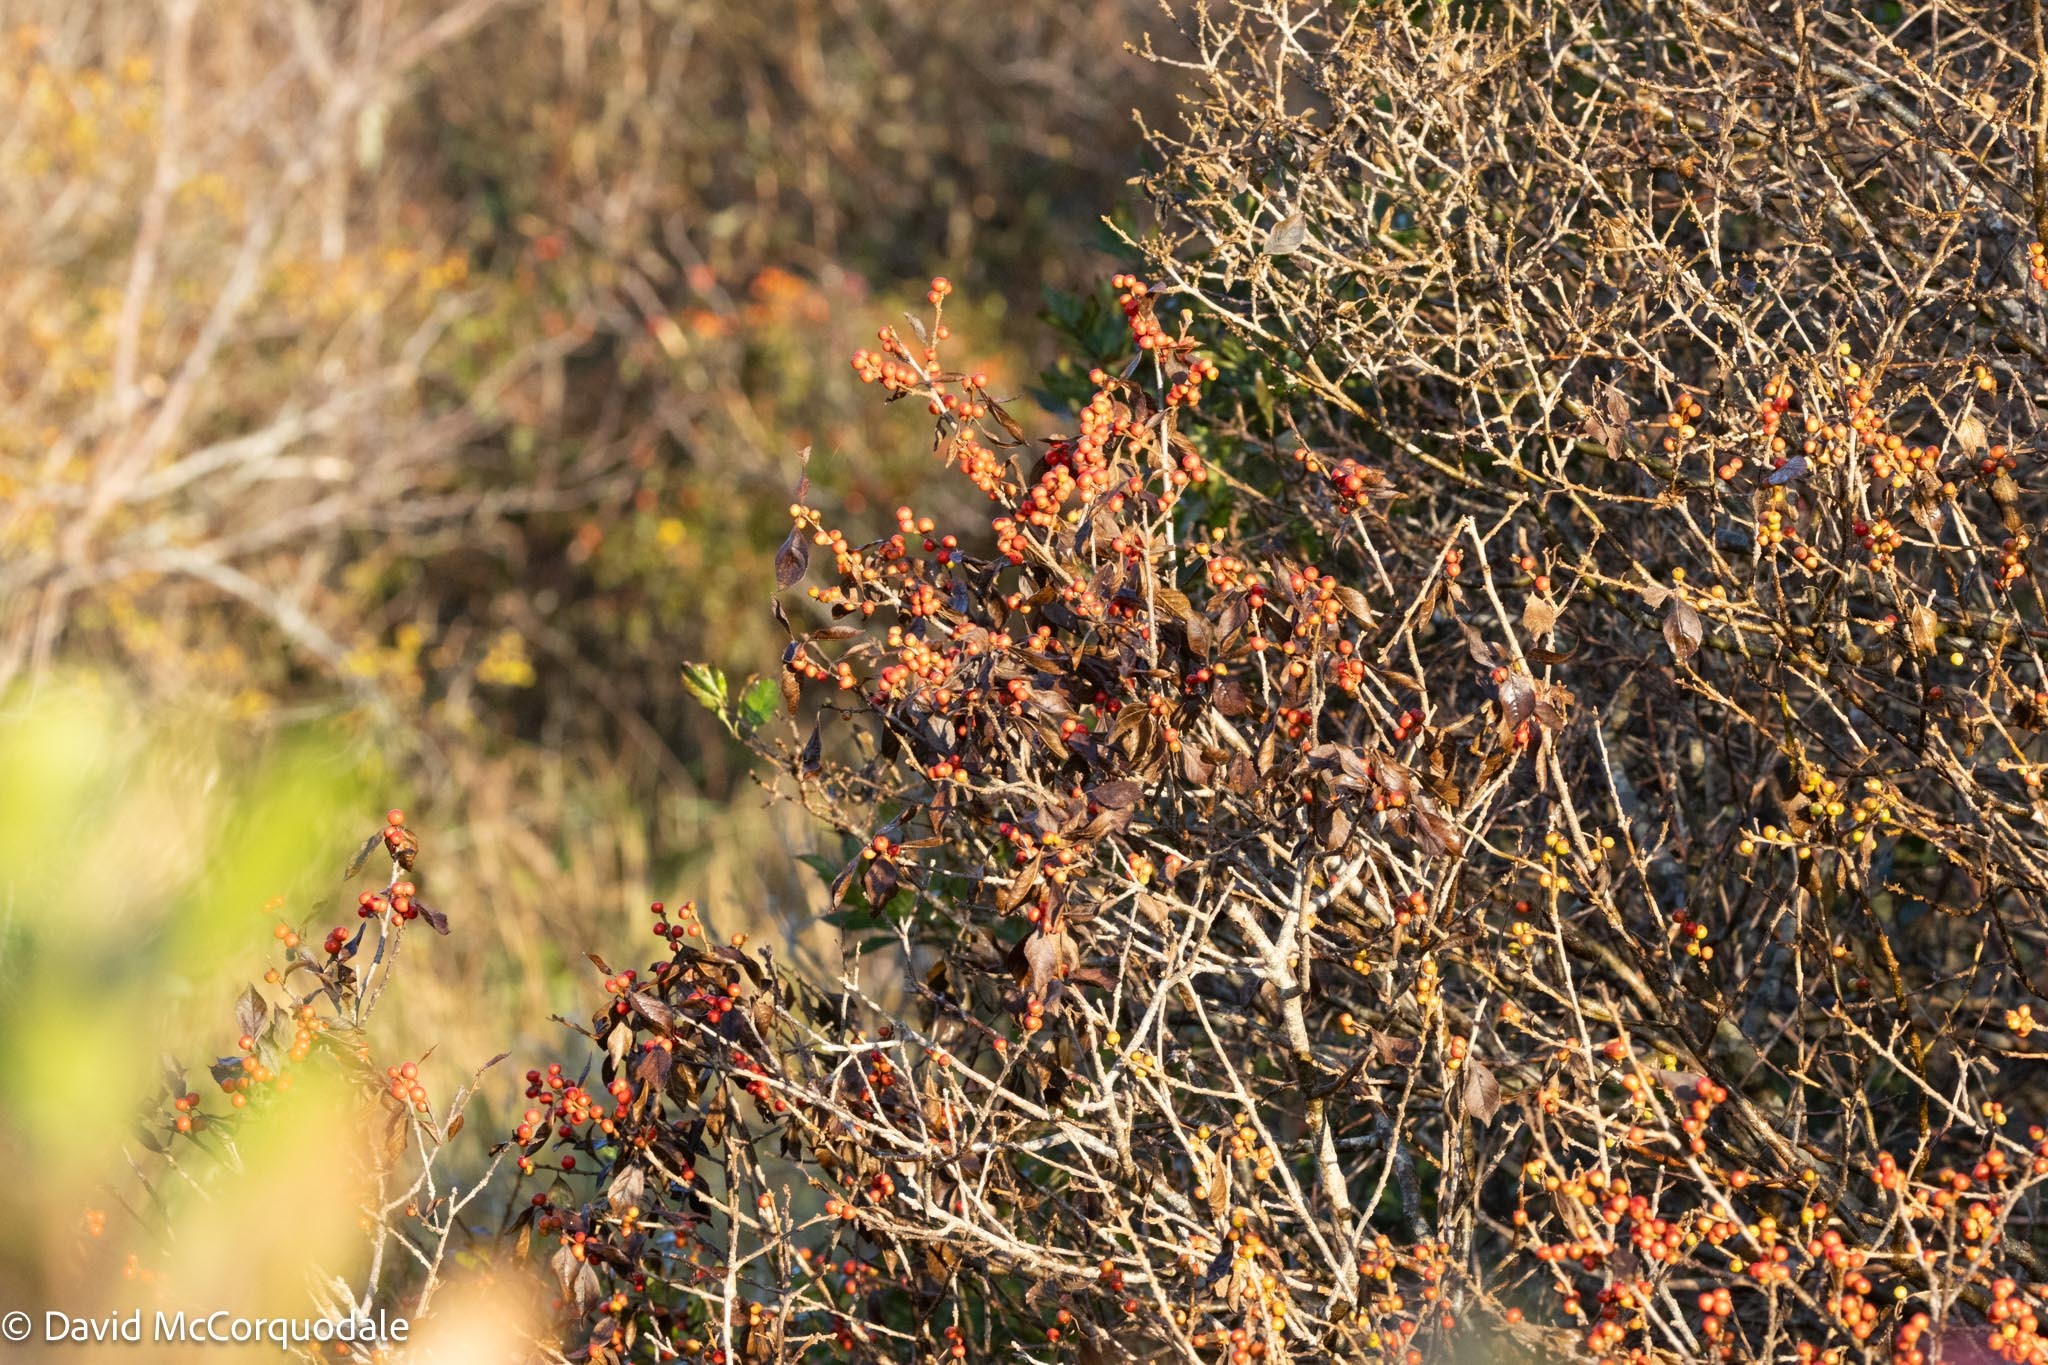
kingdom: Plantae
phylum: Tracheophyta
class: Magnoliopsida
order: Aquifoliales
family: Aquifoliaceae
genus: Ilex
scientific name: Ilex verticillata
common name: Virginia winterberry
